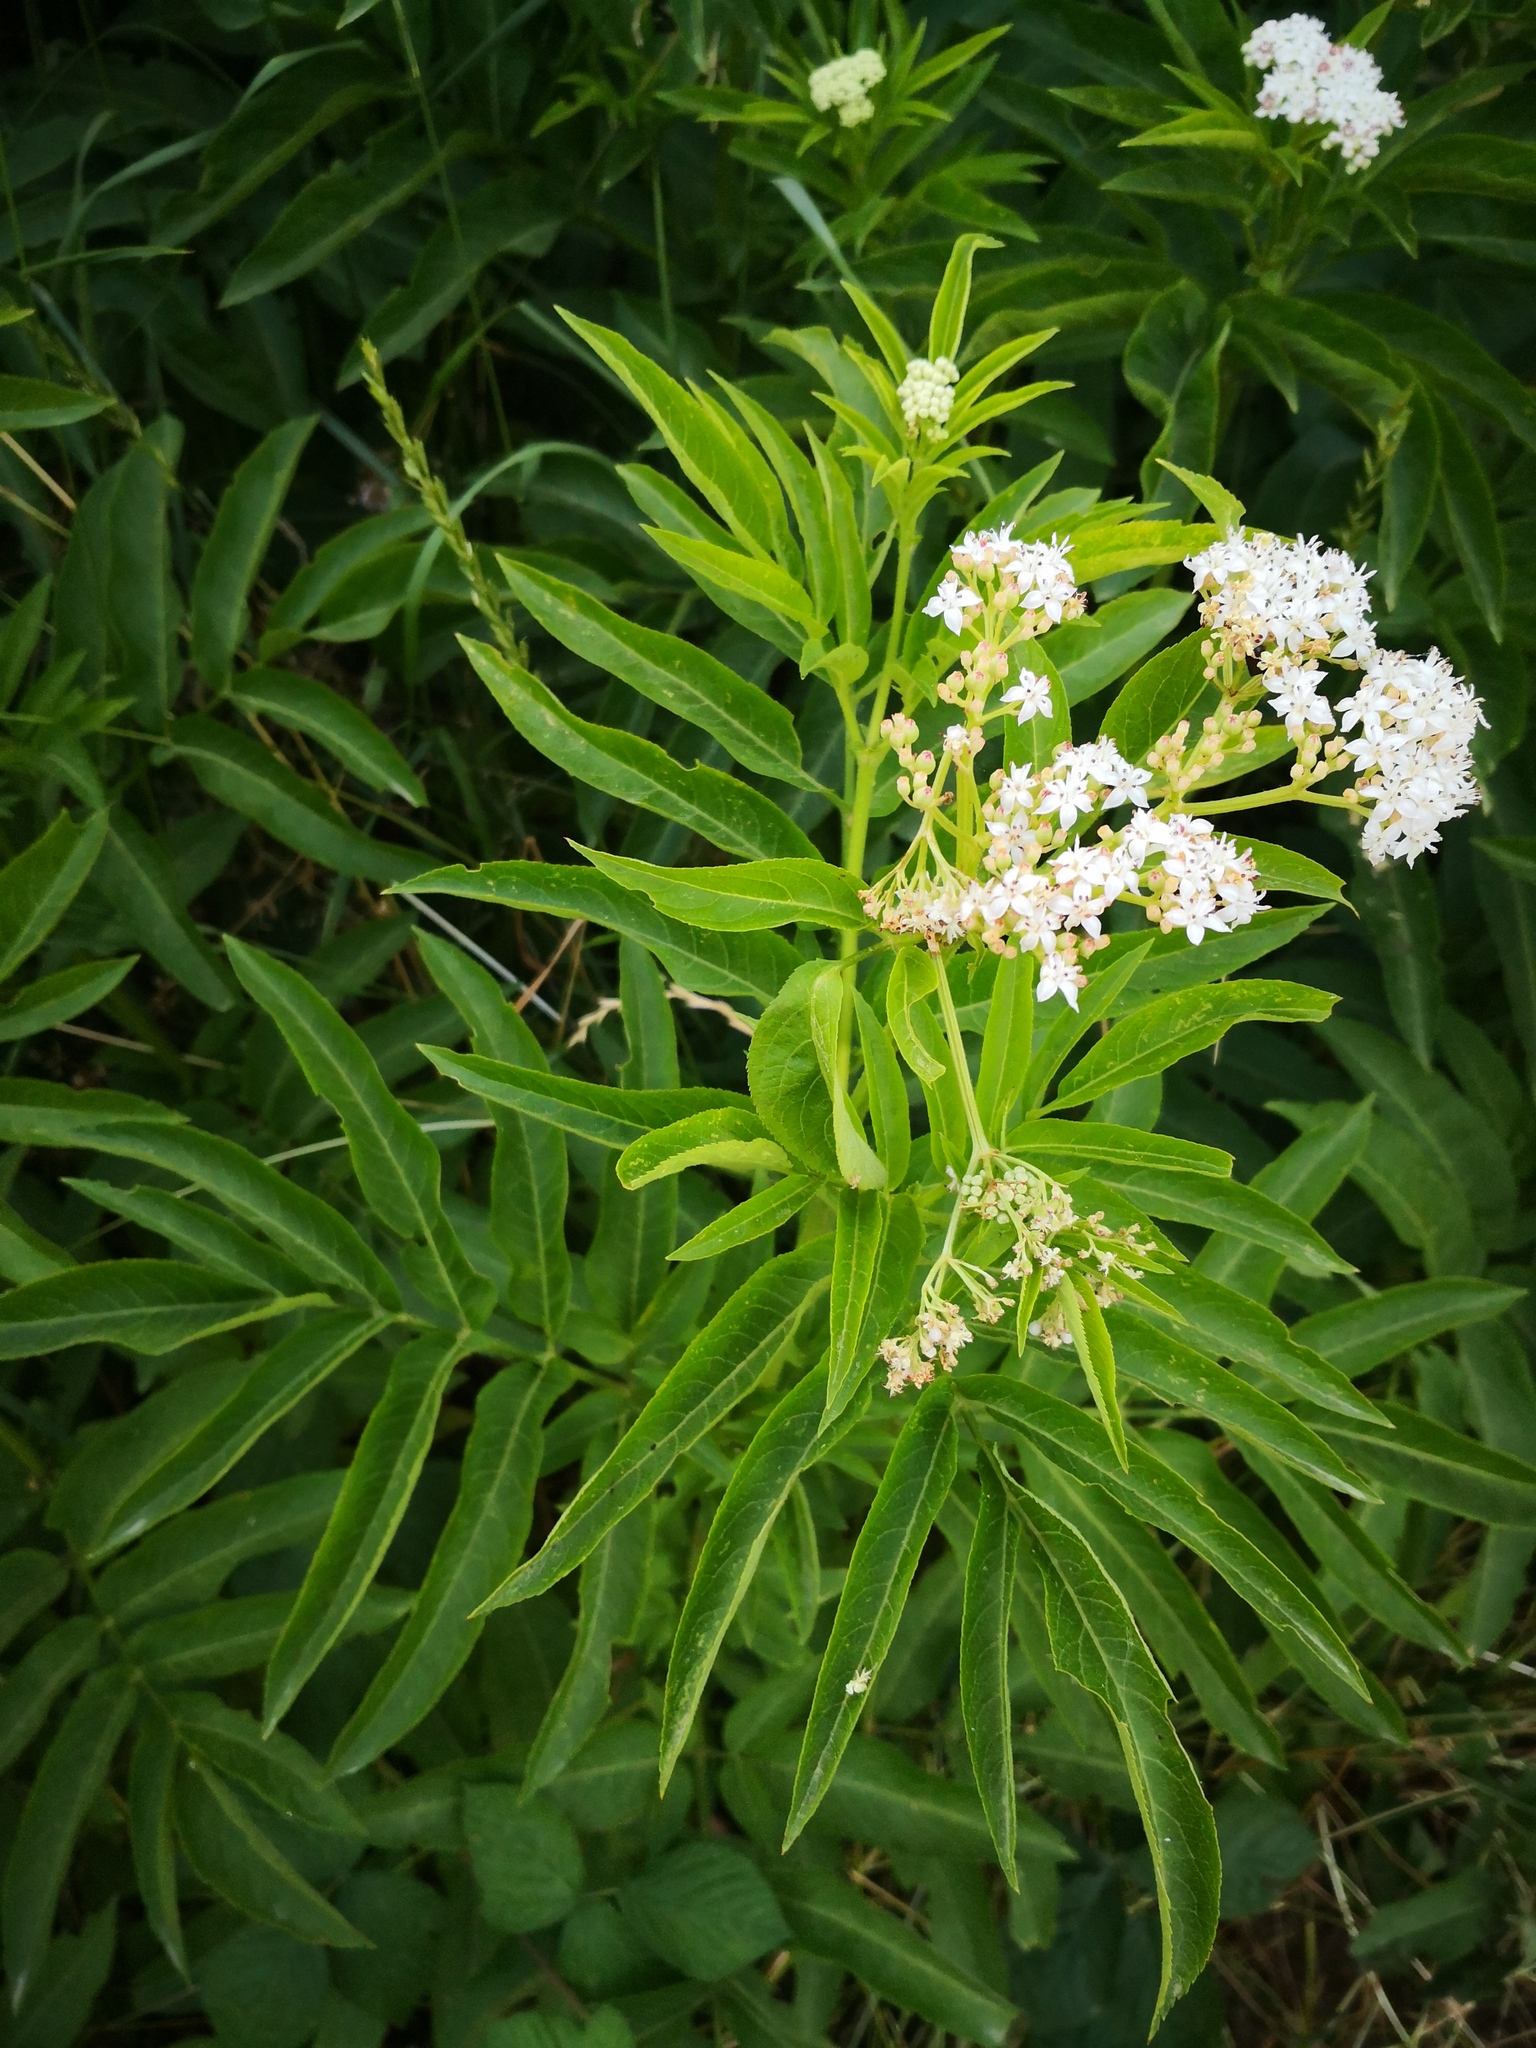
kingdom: Plantae
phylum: Tracheophyta
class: Magnoliopsida
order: Dipsacales
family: Viburnaceae
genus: Sambucus
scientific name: Sambucus ebulus
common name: Dwarf elder
